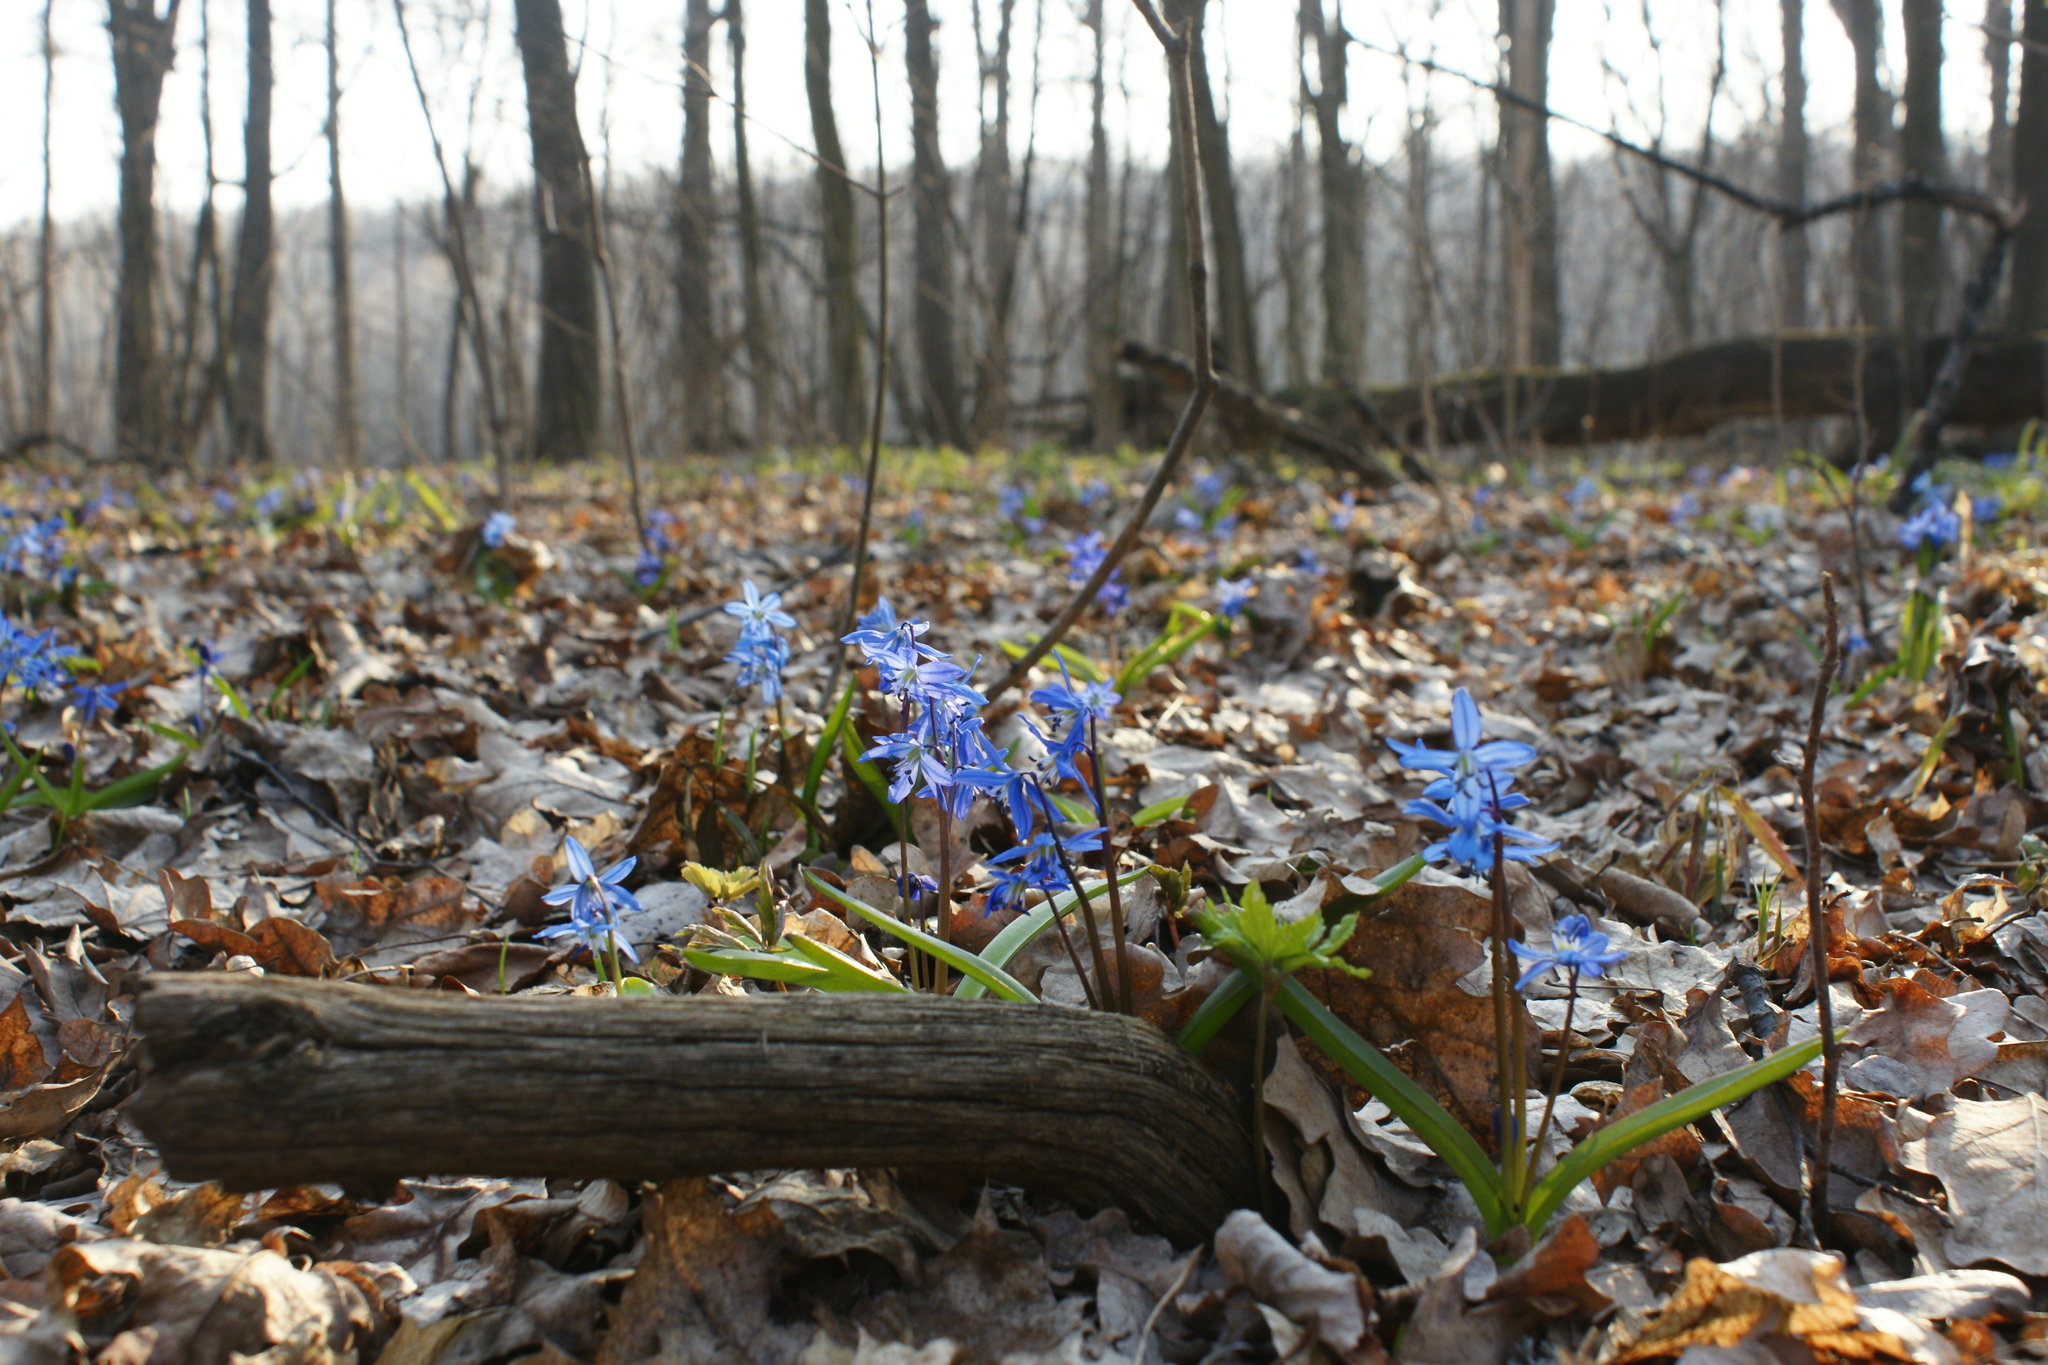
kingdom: Plantae
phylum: Tracheophyta
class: Liliopsida
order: Asparagales
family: Asparagaceae
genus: Scilla
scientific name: Scilla siberica
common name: Siberian squill
